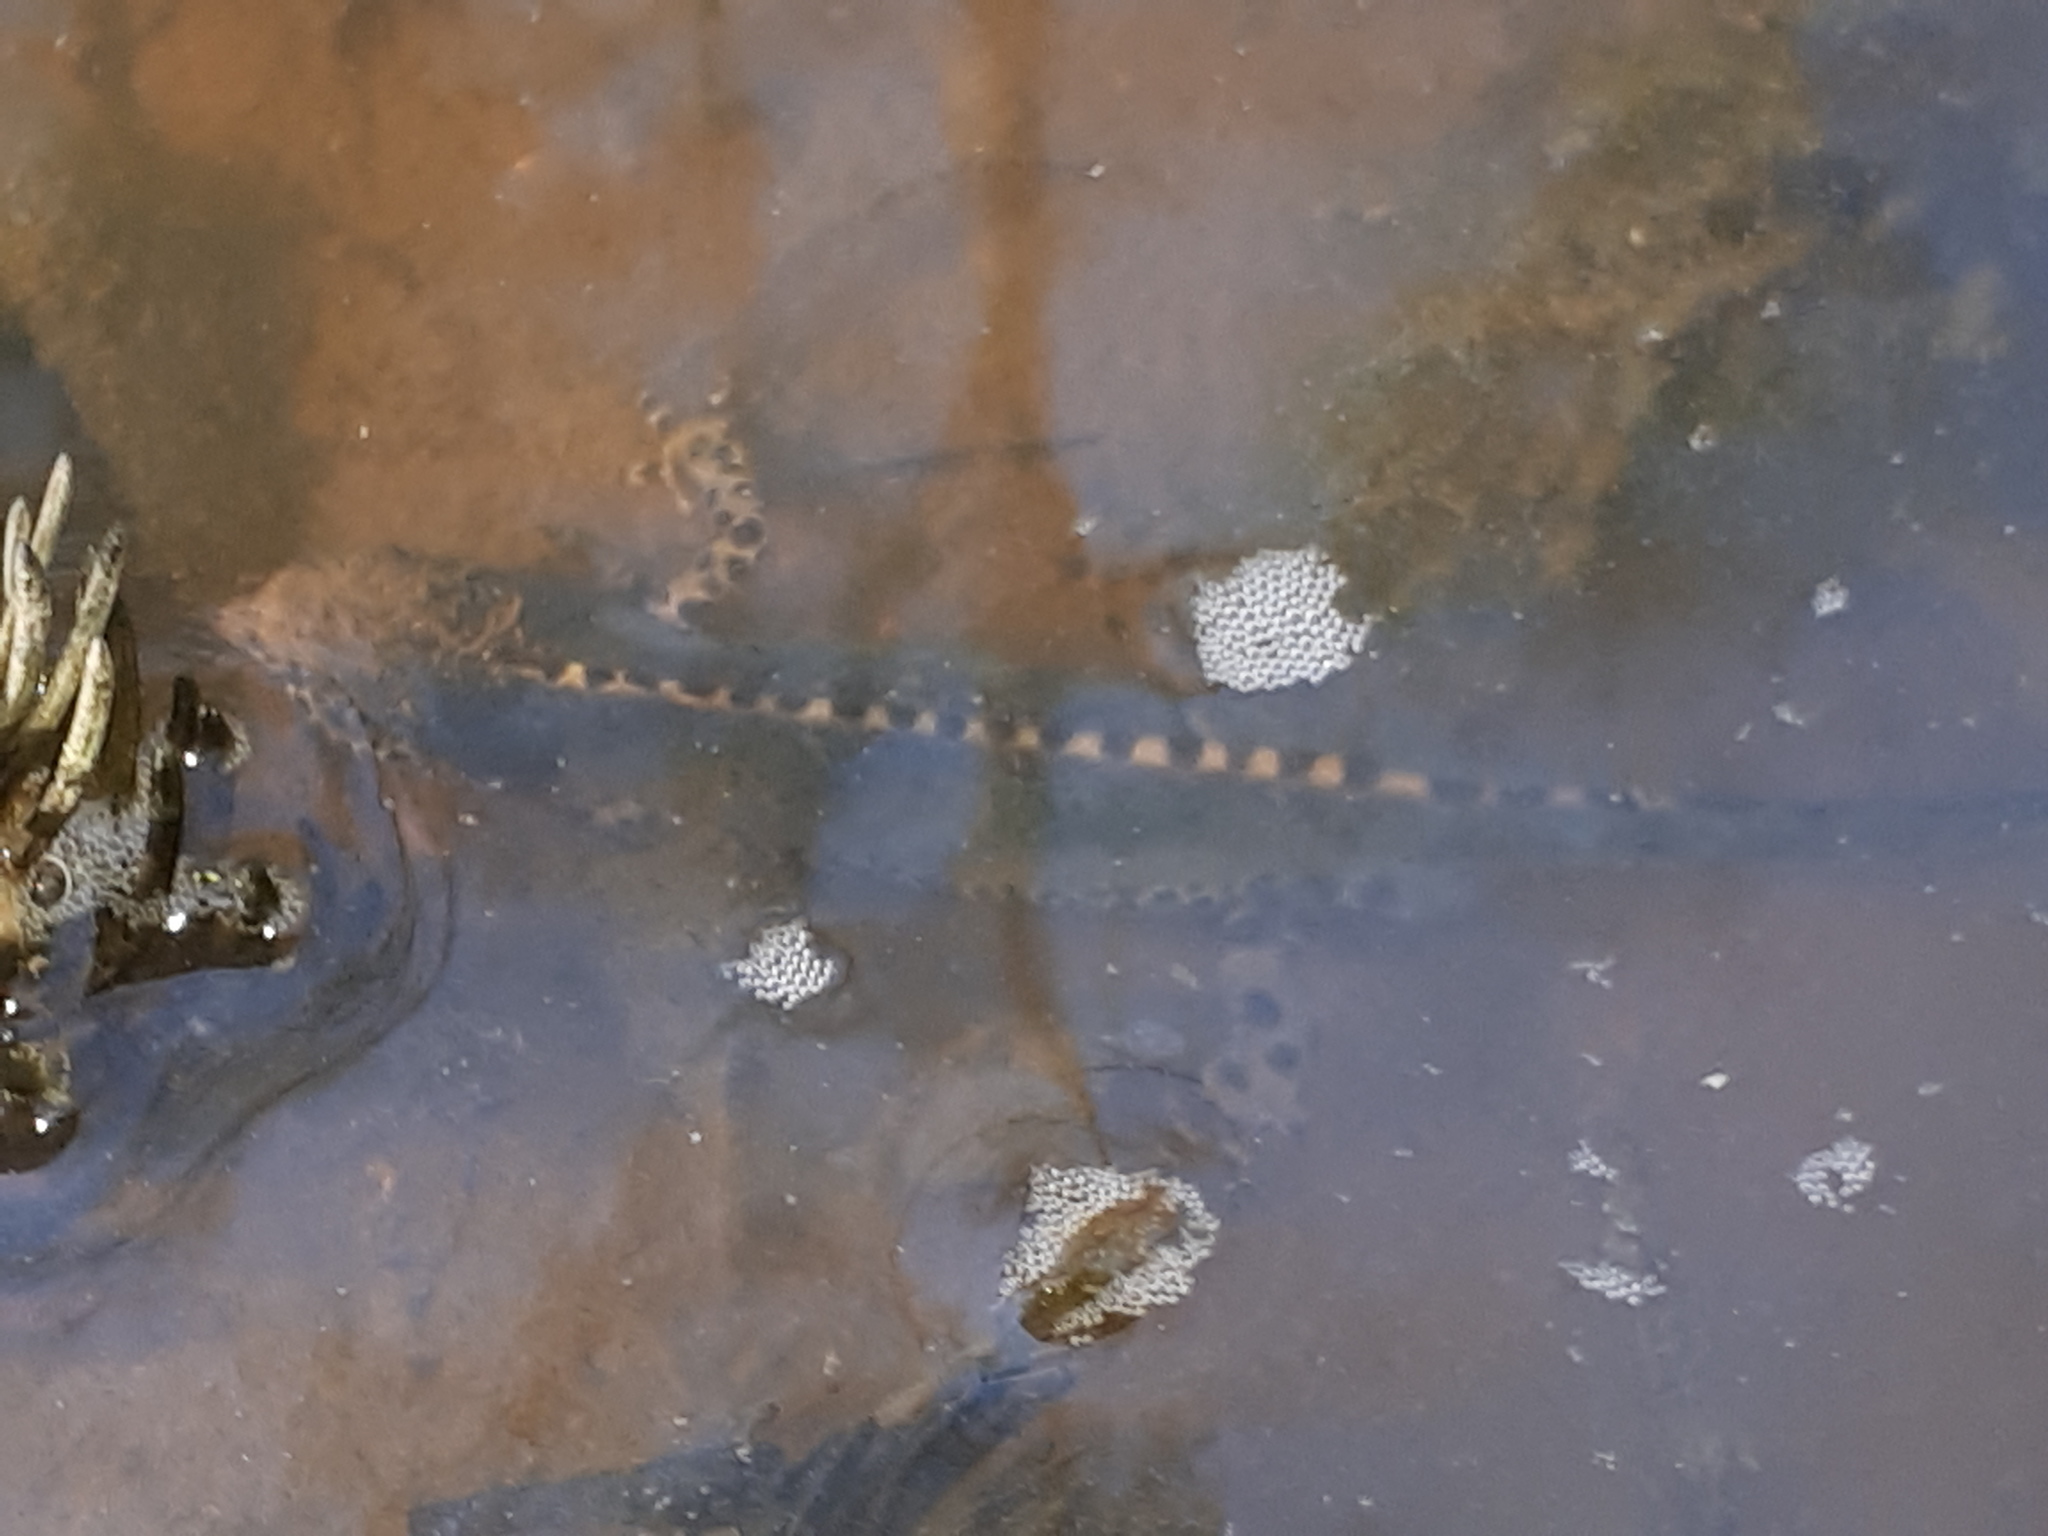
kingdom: Animalia
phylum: Chordata
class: Amphibia
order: Caudata
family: Salamandridae
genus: Ichthyosaura
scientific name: Ichthyosaura alpestris
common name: Alpine newt
